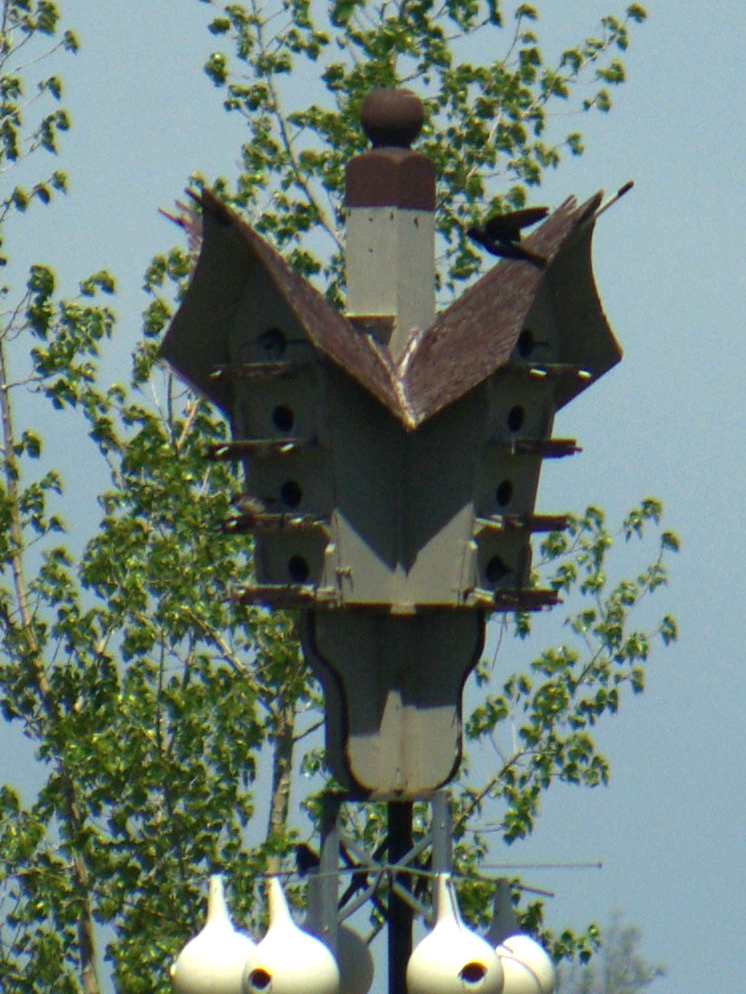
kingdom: Animalia
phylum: Chordata
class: Aves
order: Passeriformes
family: Hirundinidae
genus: Progne
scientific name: Progne subis
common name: Purple martin
